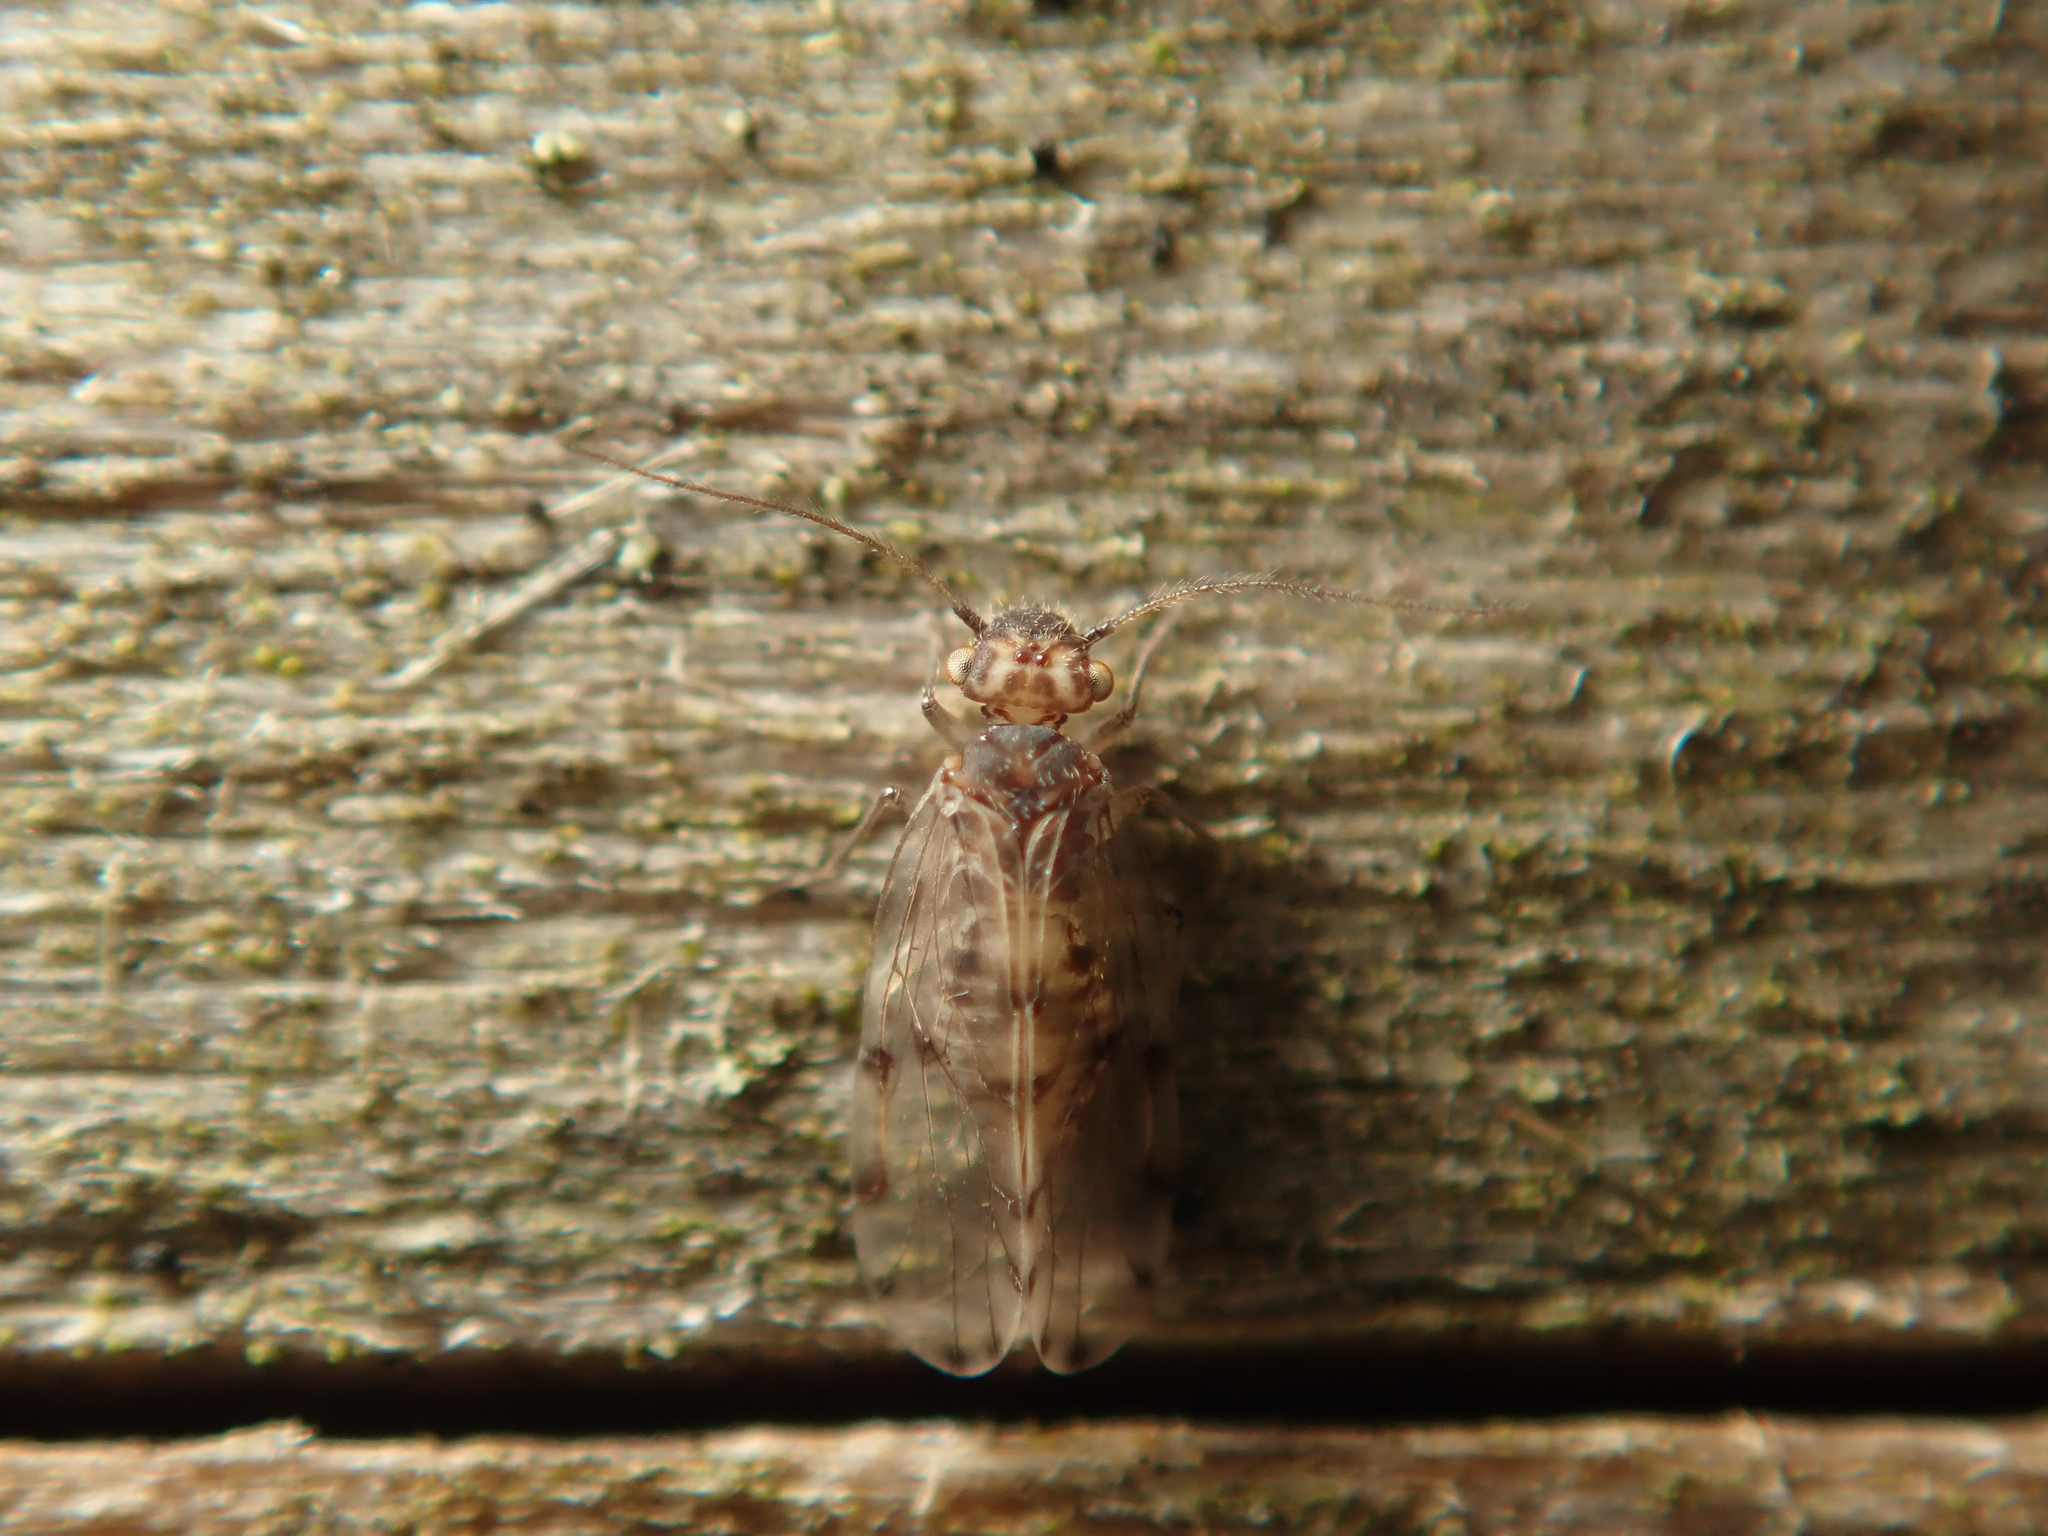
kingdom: Animalia
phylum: Arthropoda
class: Insecta
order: Psocodea
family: Ectopsocidae
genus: Ectopsocus
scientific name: Ectopsocus petersi
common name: Medium-sized bark louse
